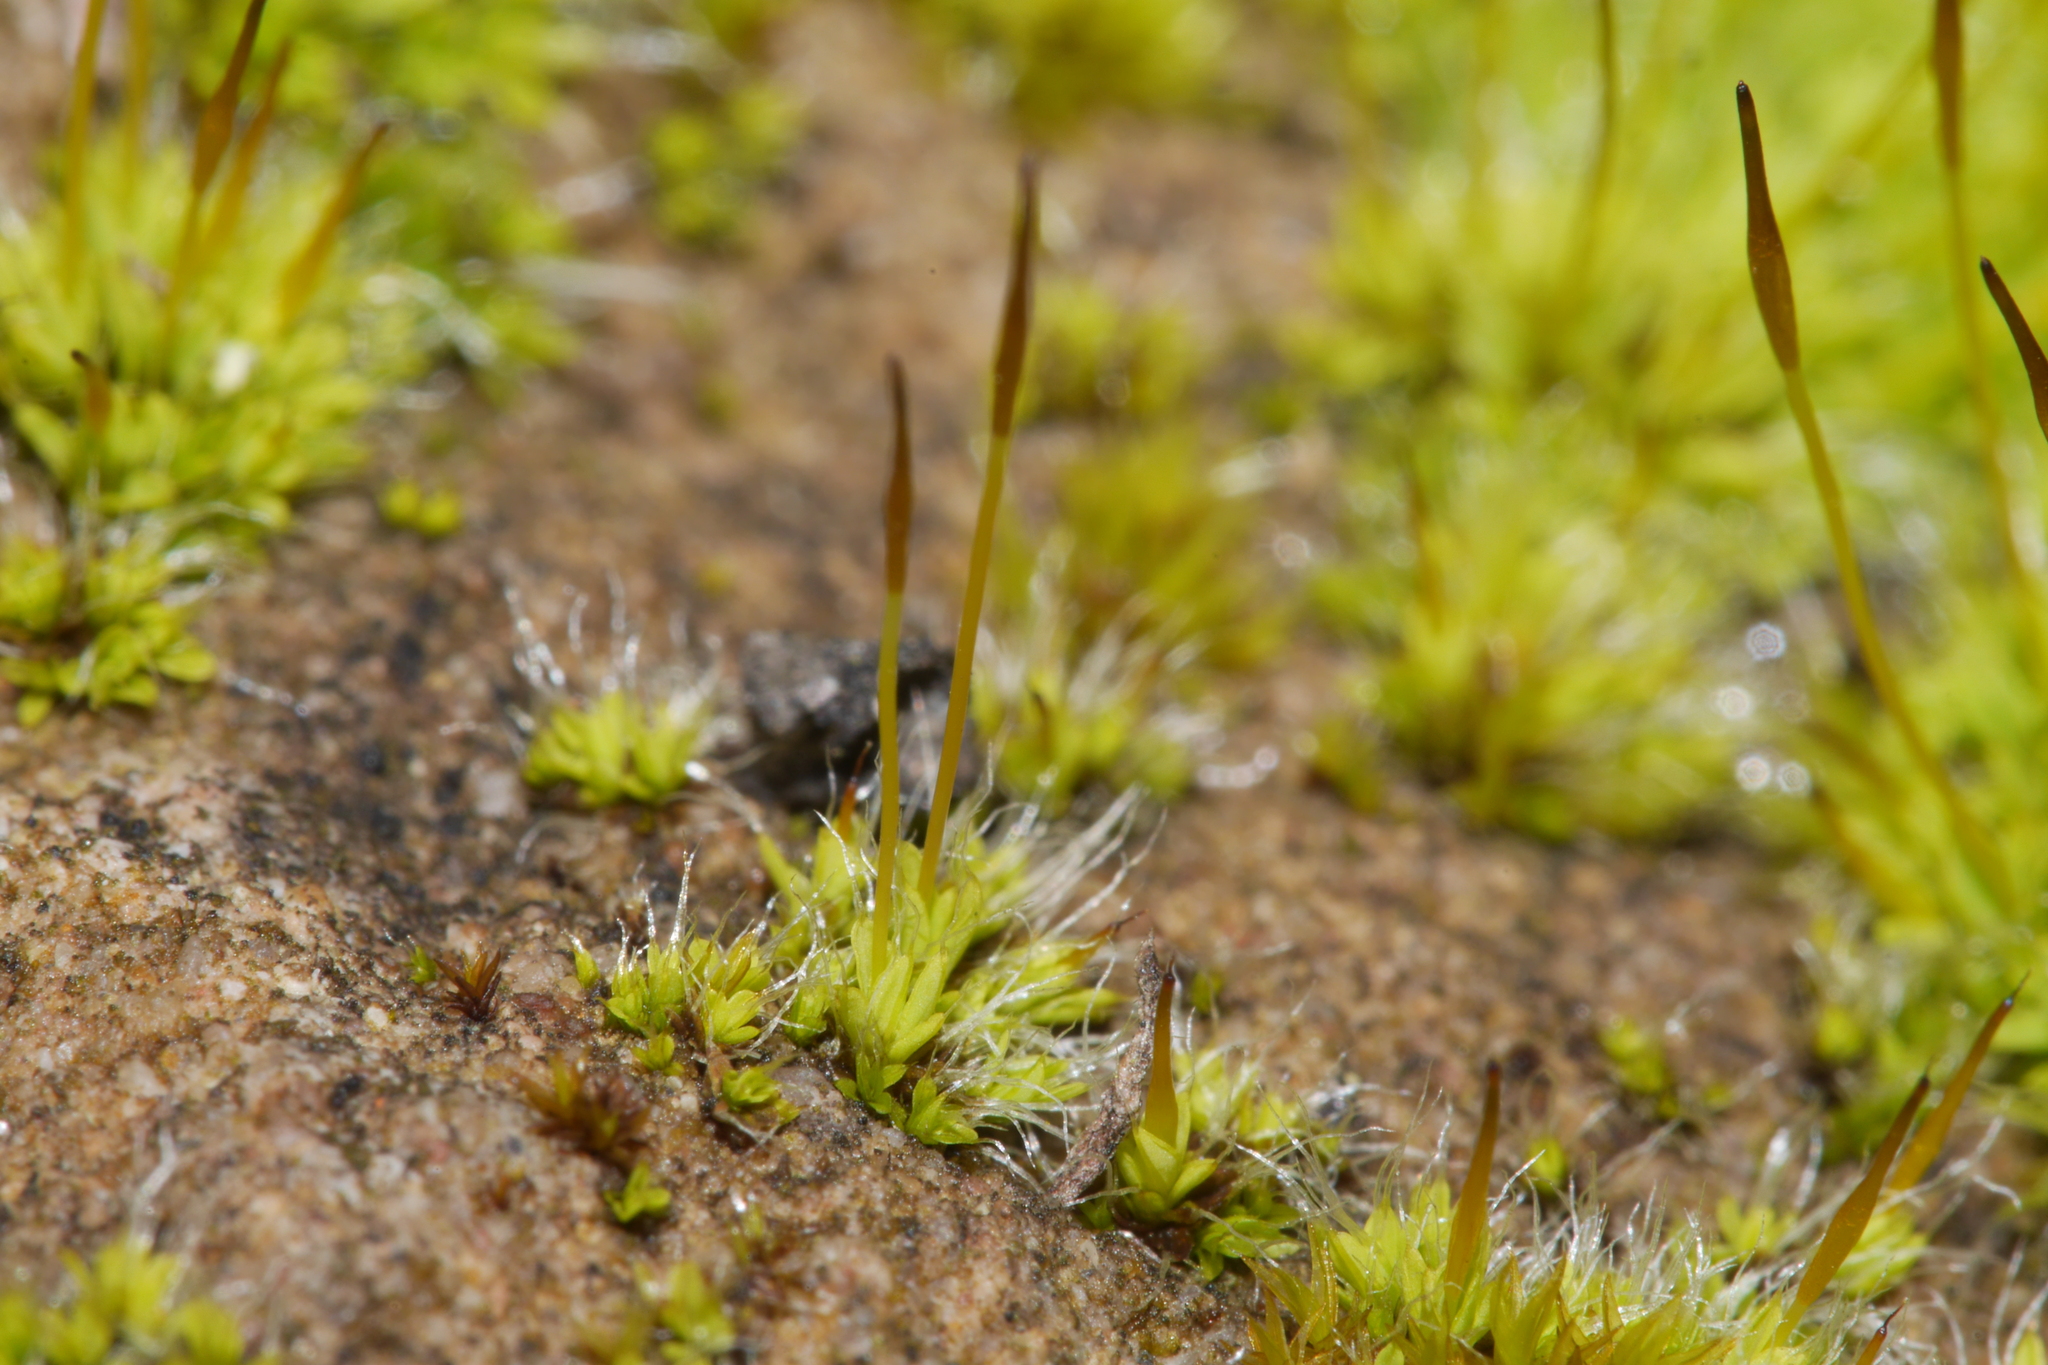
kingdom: Plantae
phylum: Bryophyta
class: Bryopsida
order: Pottiales
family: Pottiaceae
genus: Tortula
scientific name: Tortula muralis
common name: Wall screw-moss
